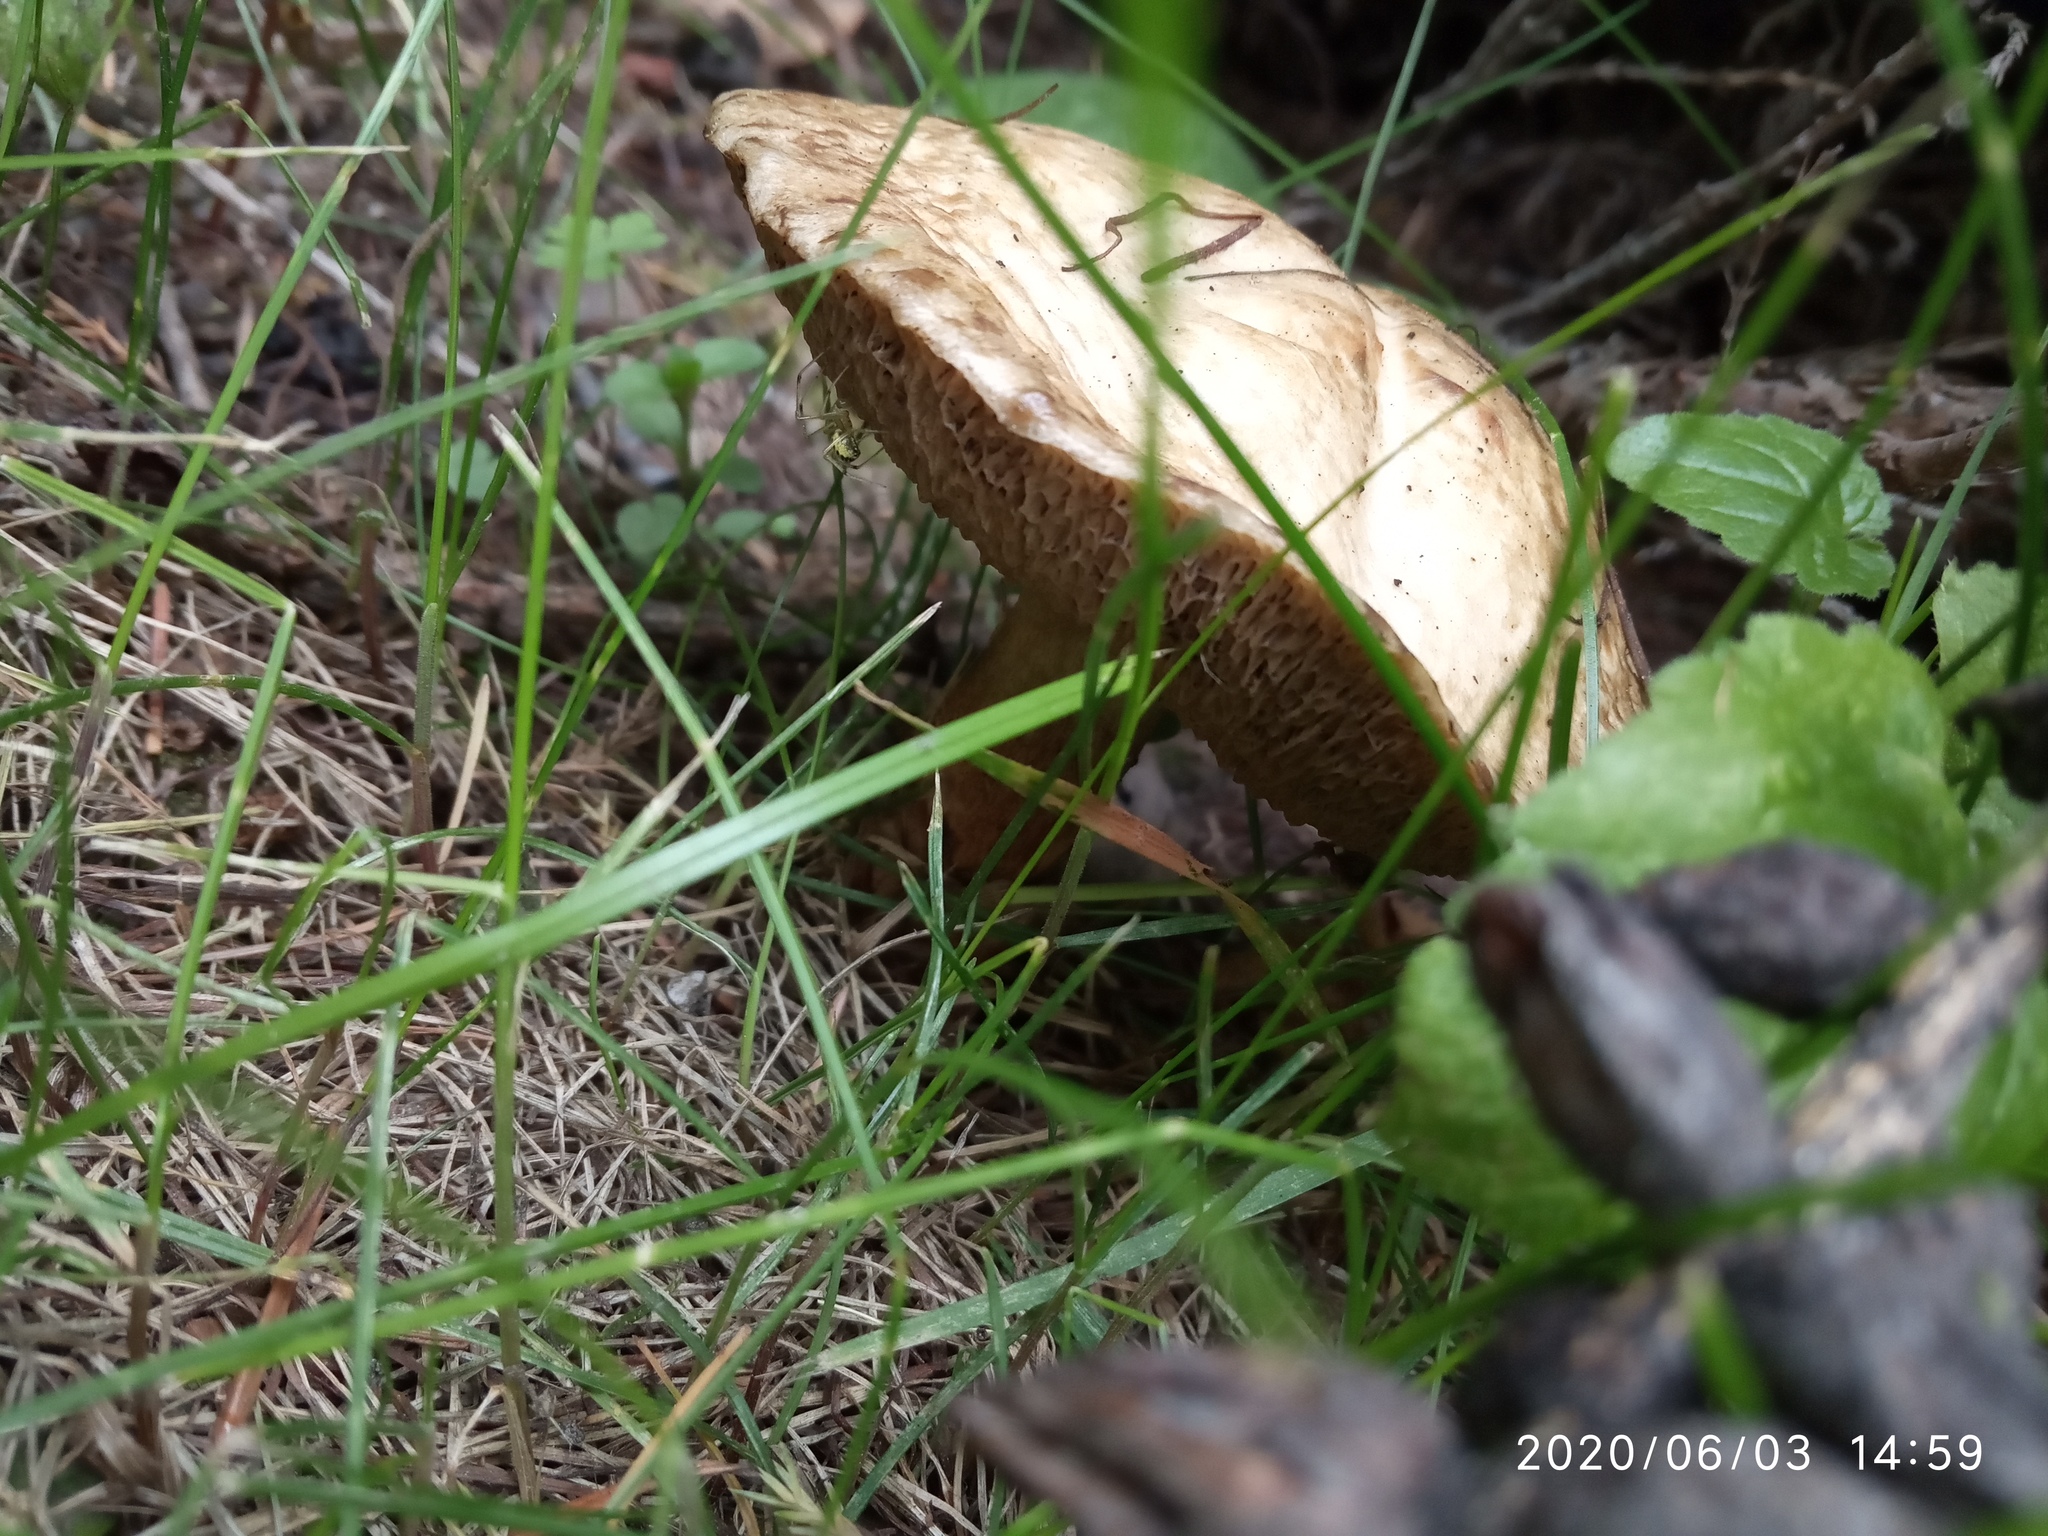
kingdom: Fungi
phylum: Basidiomycota
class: Agaricomycetes
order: Boletales
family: Suillaceae
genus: Suillus
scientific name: Suillus viscidus
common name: Sticky bolete
